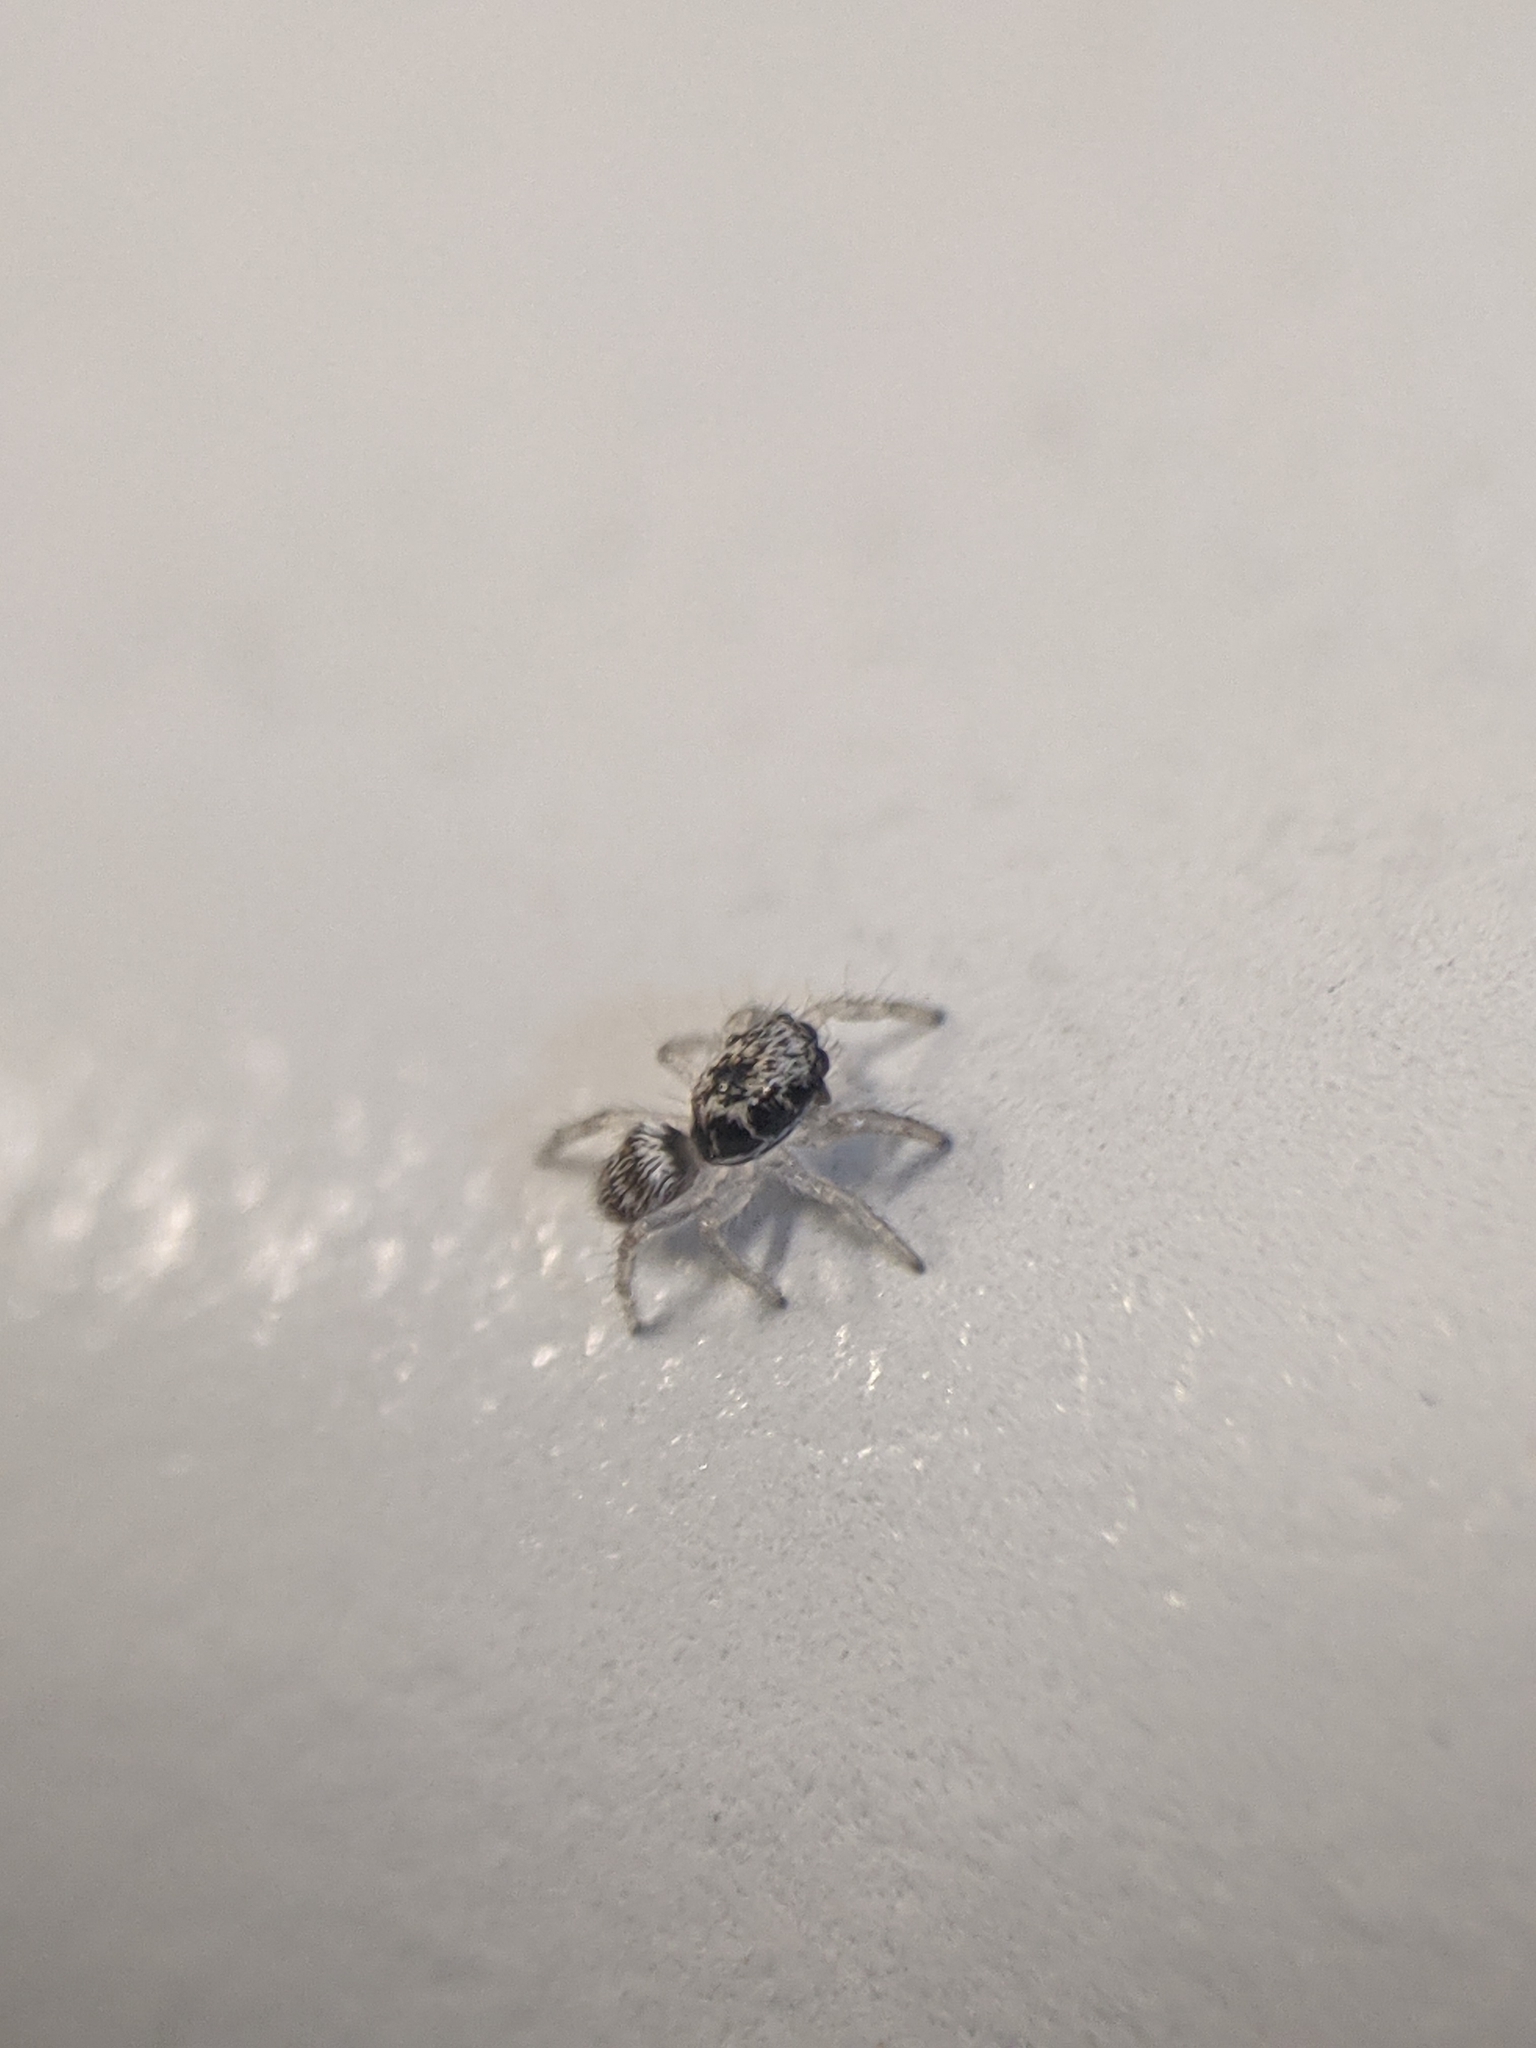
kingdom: Animalia
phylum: Arthropoda
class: Arachnida
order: Araneae
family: Salticidae
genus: Salticus
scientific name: Salticus scenicus
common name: Zebra jumper
